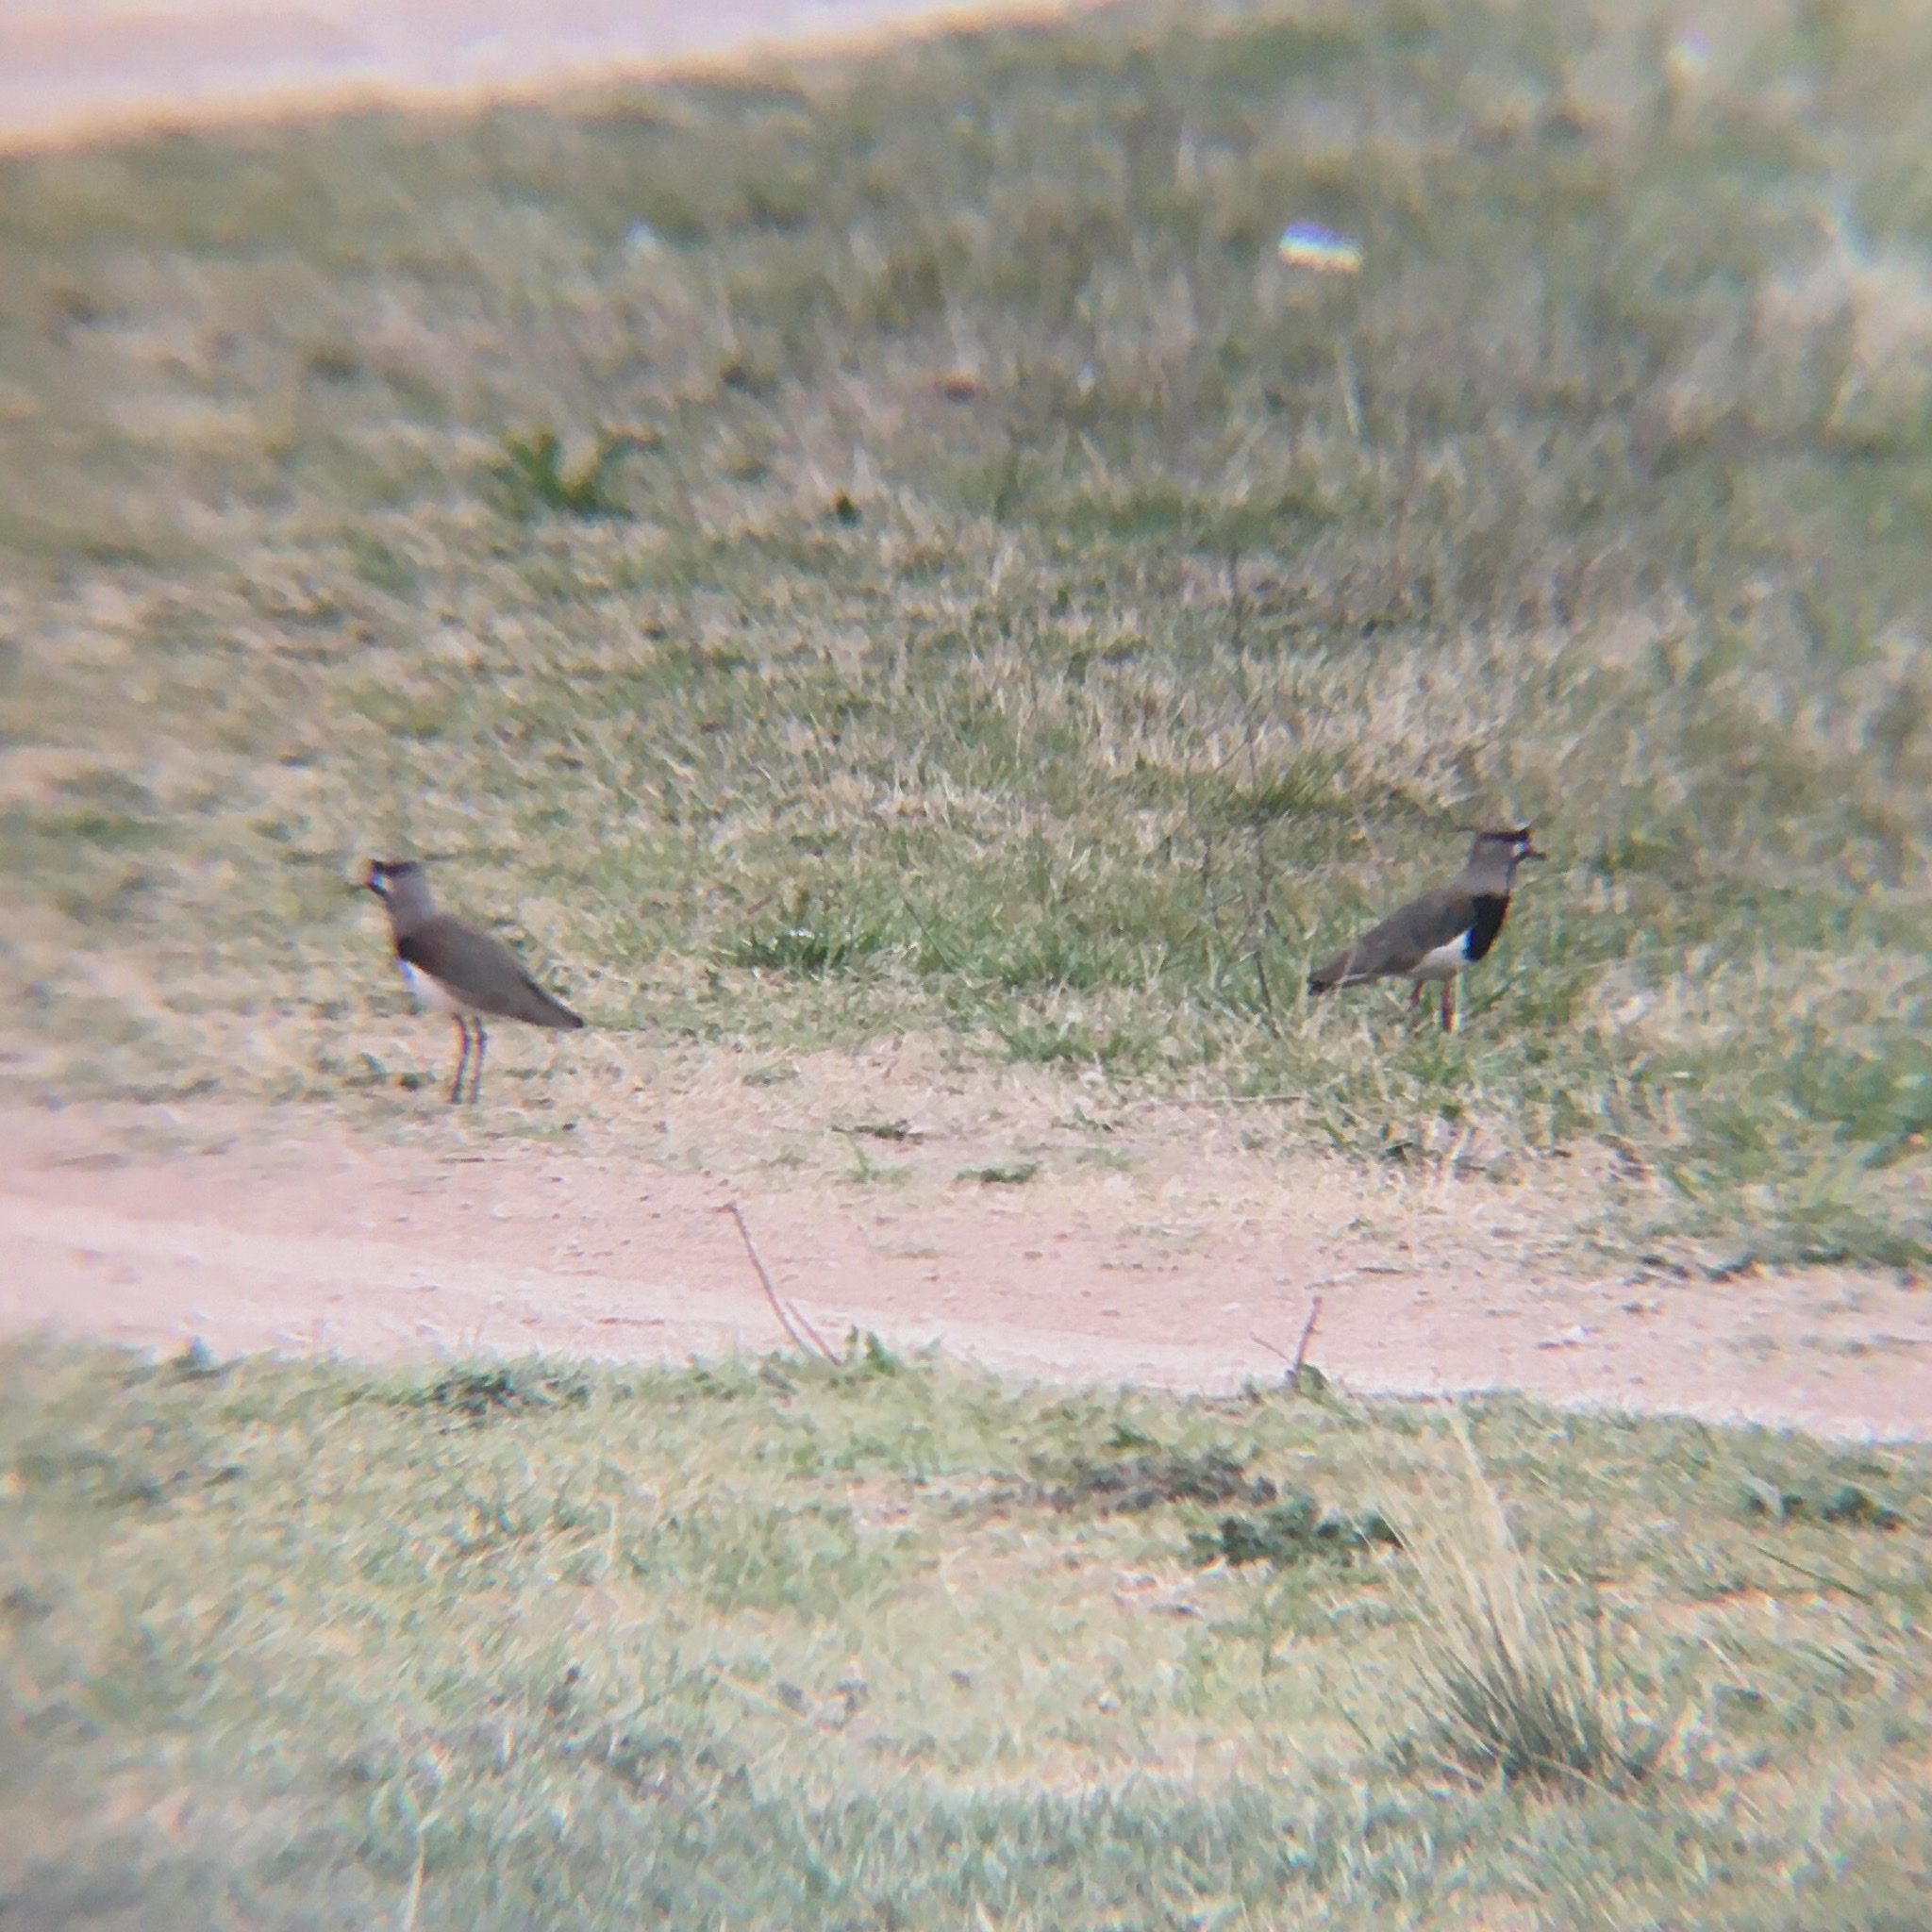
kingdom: Animalia
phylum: Chordata
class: Aves
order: Charadriiformes
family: Charadriidae
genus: Vanellus
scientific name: Vanellus chilensis
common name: Southern lapwing
